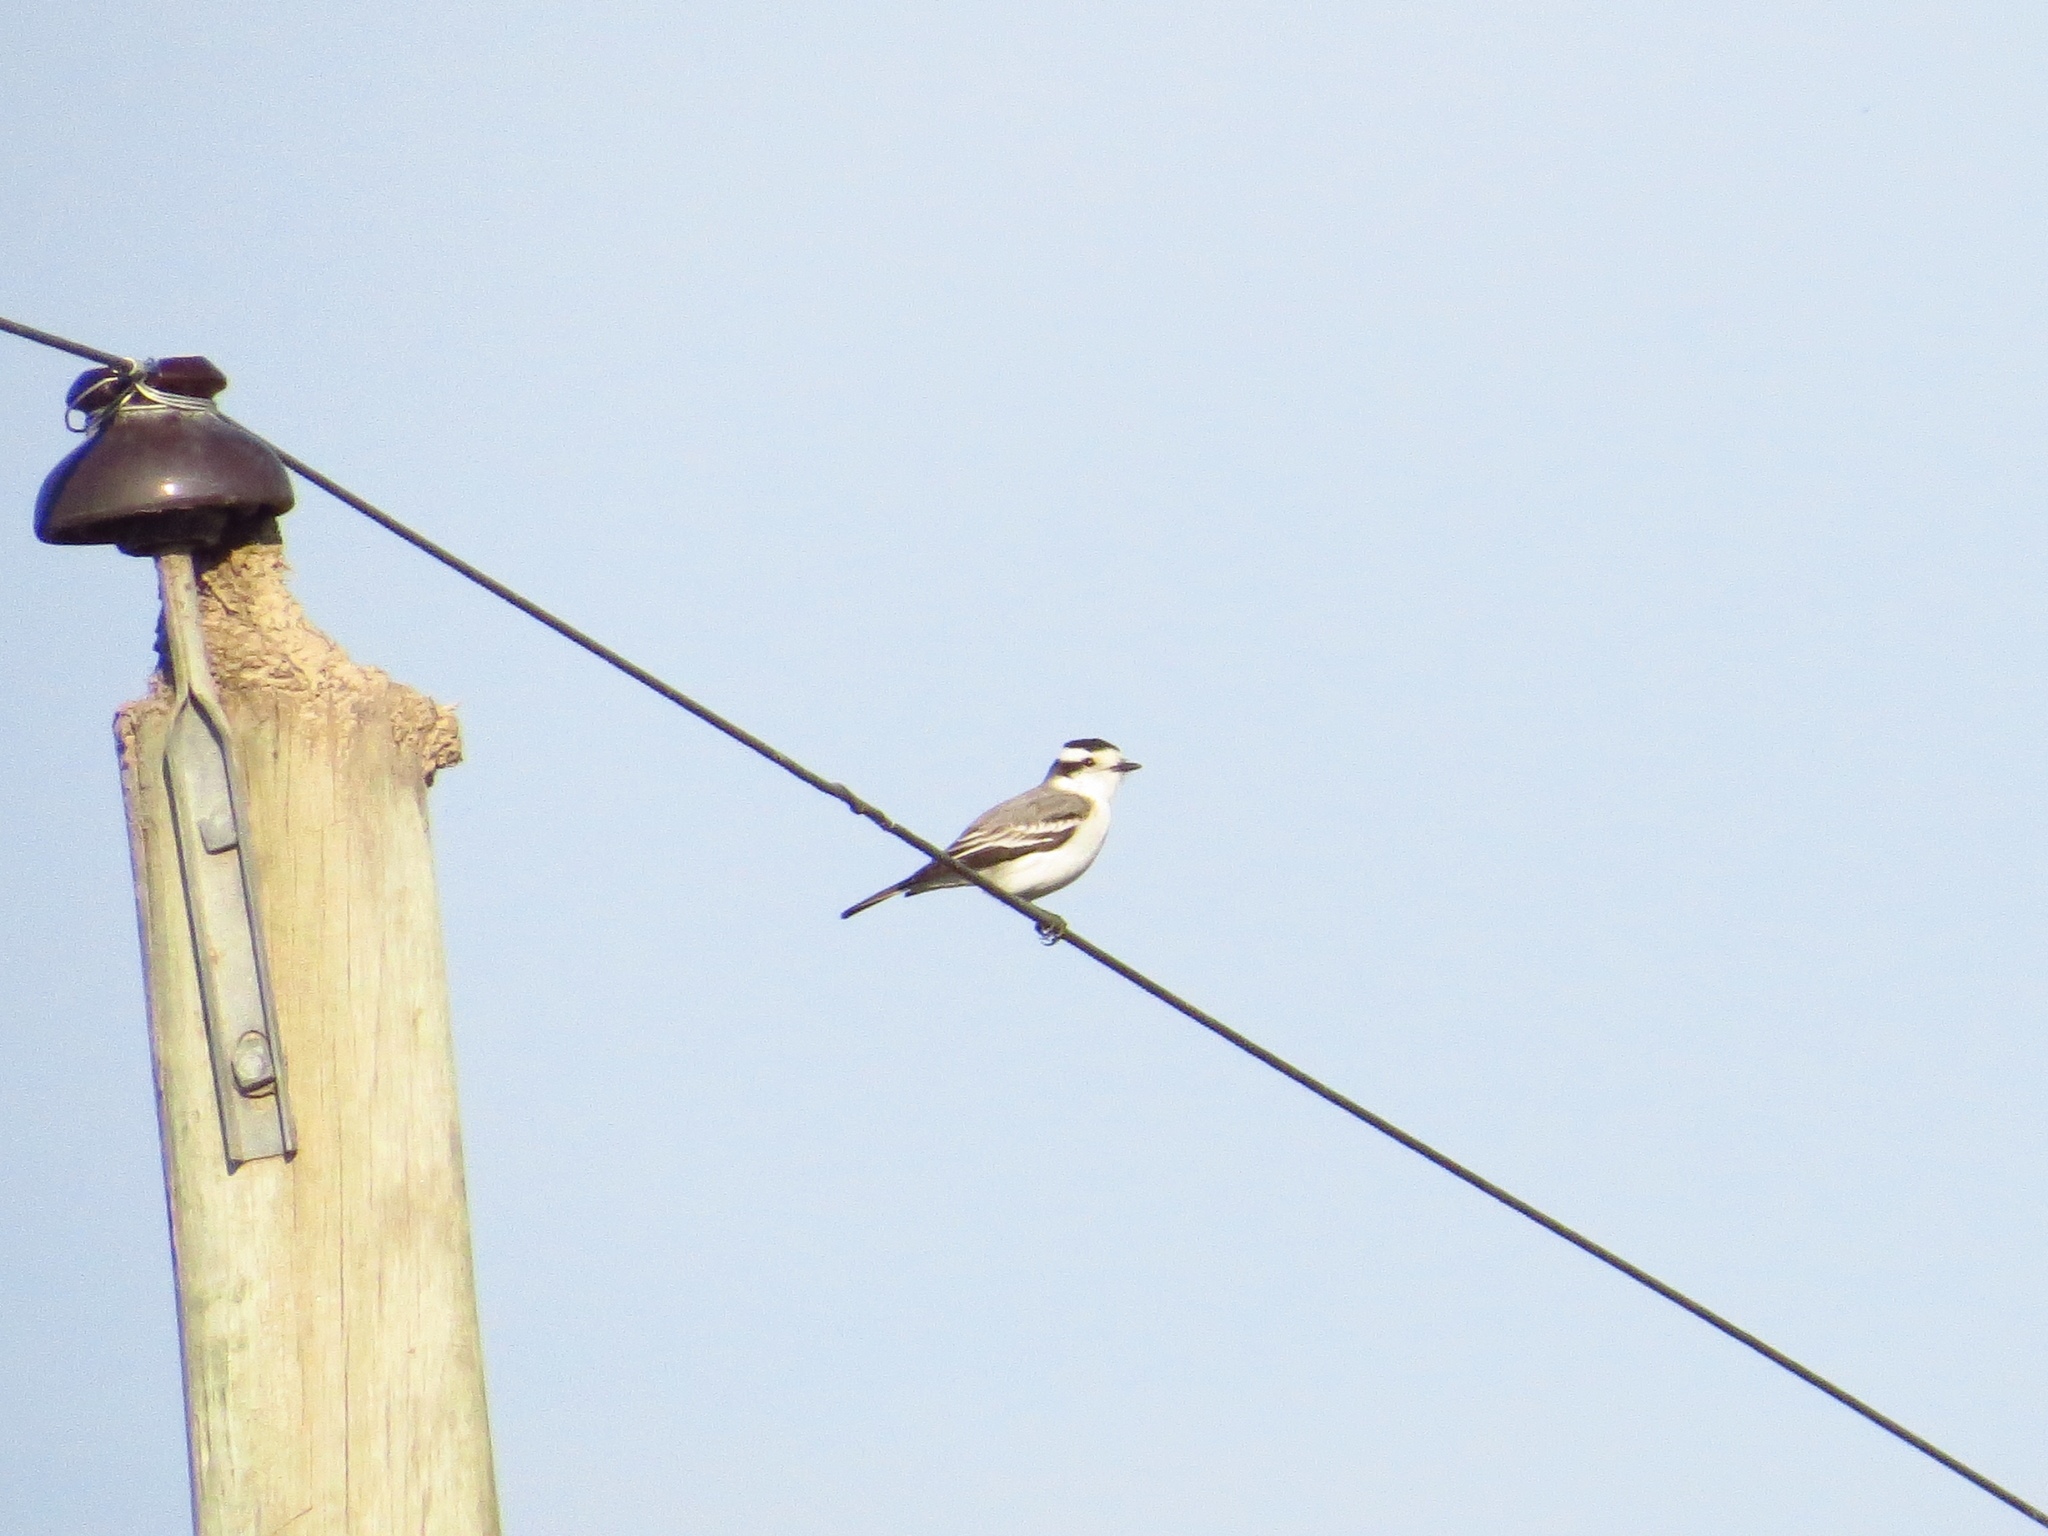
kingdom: Animalia
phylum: Chordata
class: Aves
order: Passeriformes
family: Tyrannidae
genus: Xolmis
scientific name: Xolmis coronatus
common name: Black-crowned monjita
